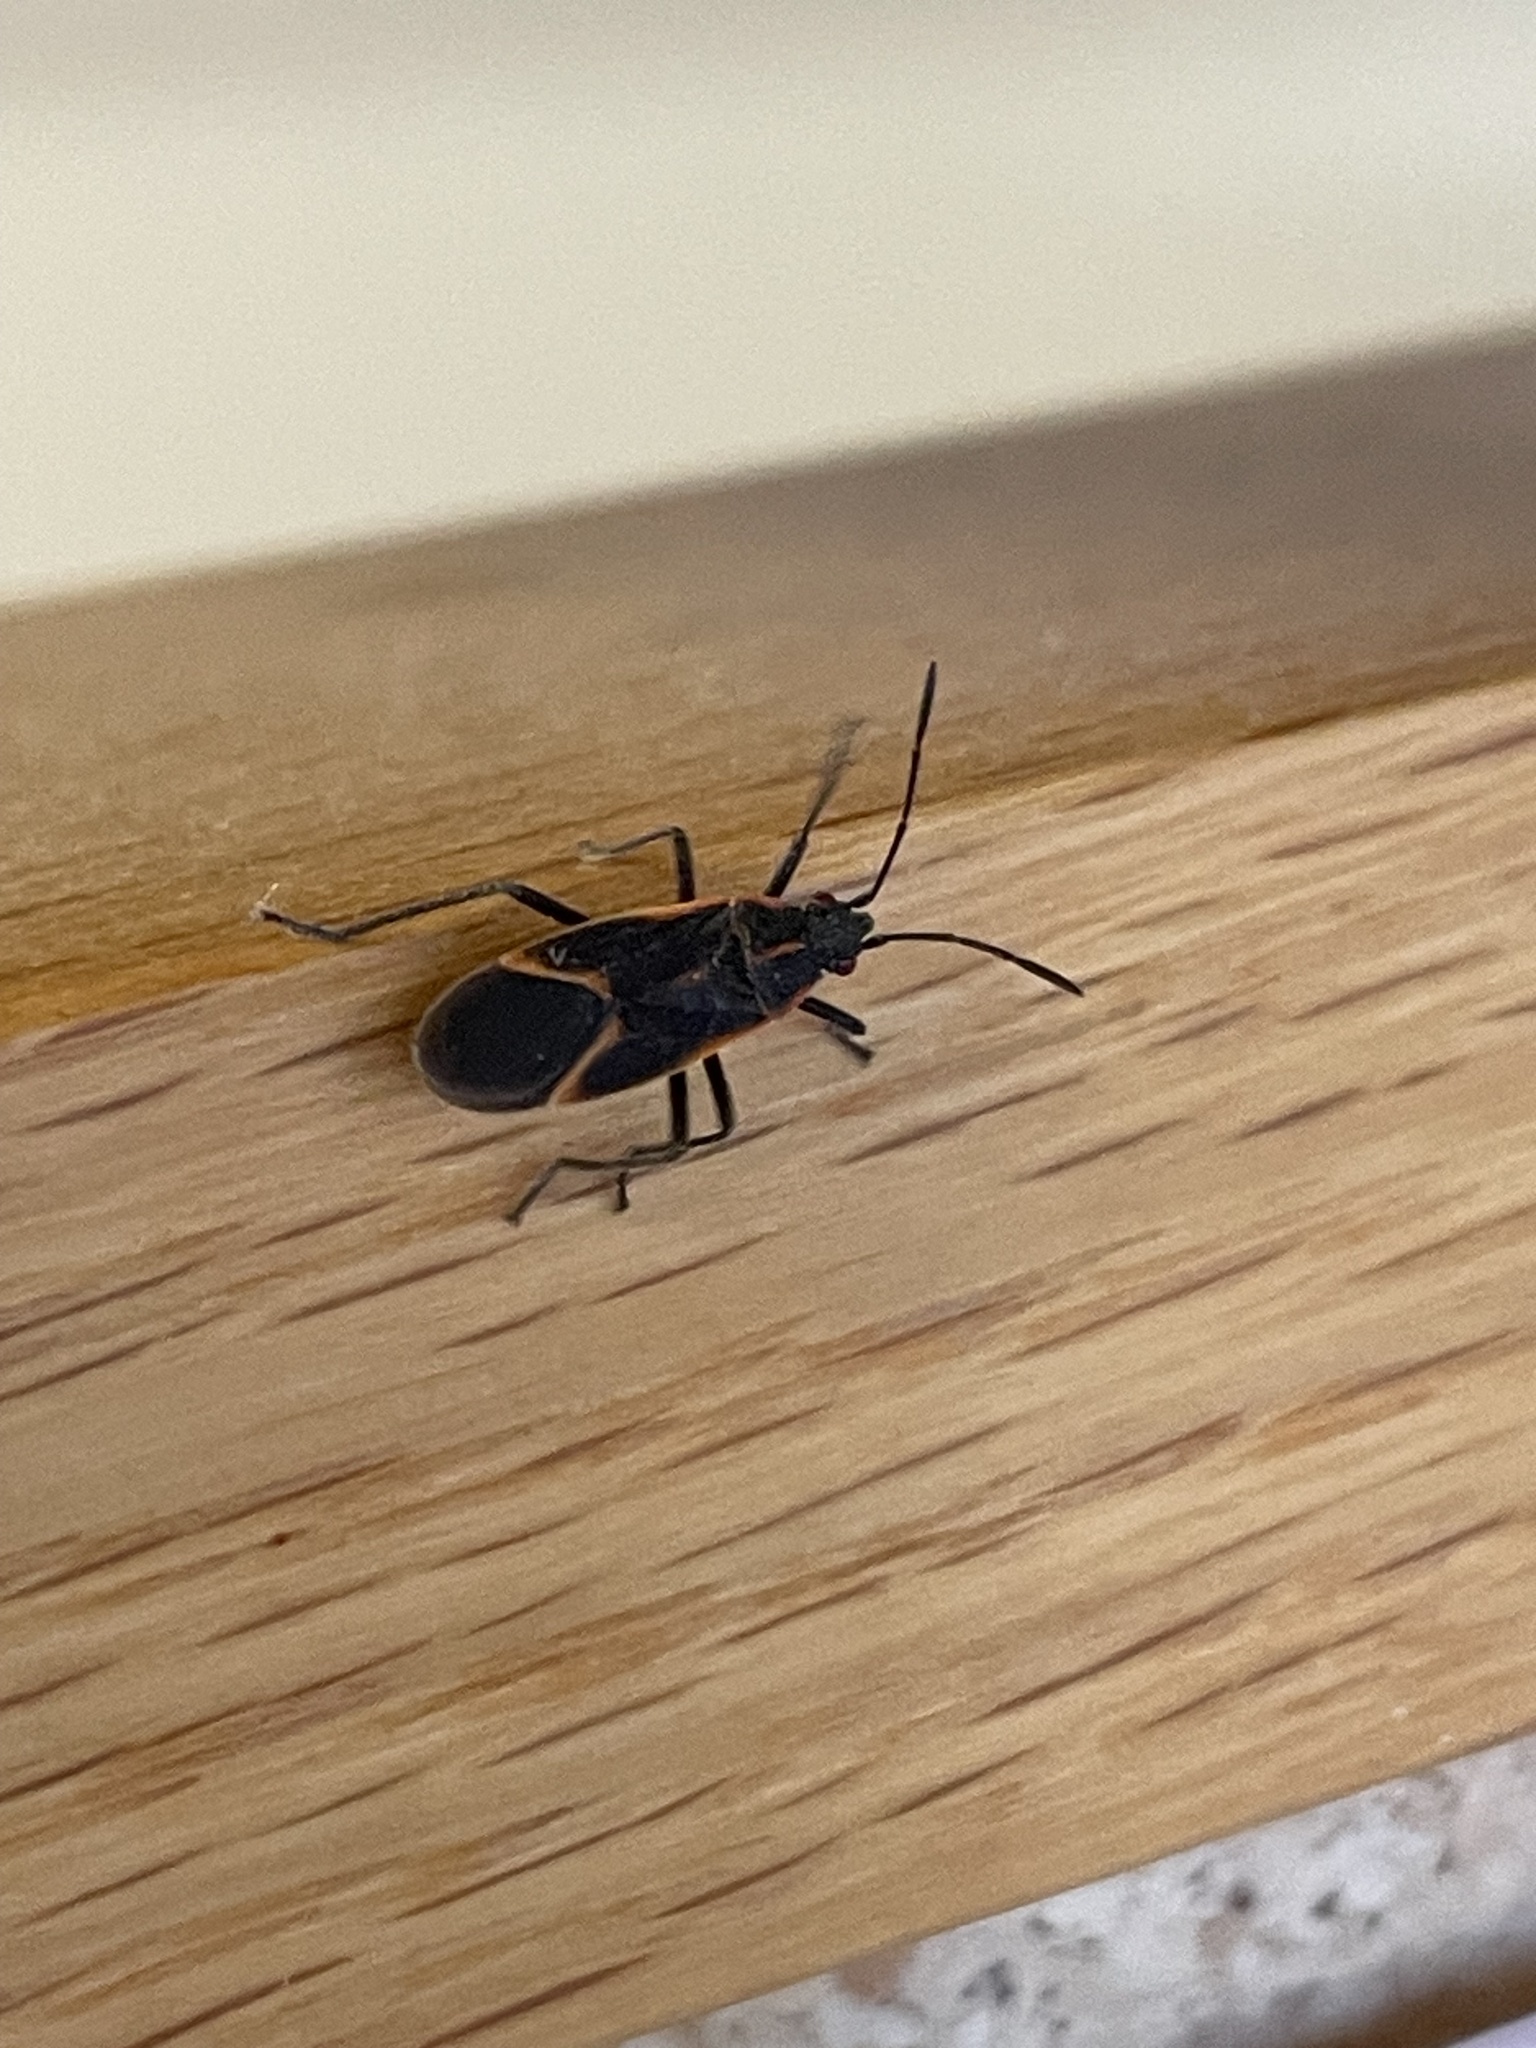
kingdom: Animalia
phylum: Arthropoda
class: Insecta
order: Hemiptera
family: Rhopalidae
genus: Boisea
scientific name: Boisea trivittata
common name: Boxelder bug
